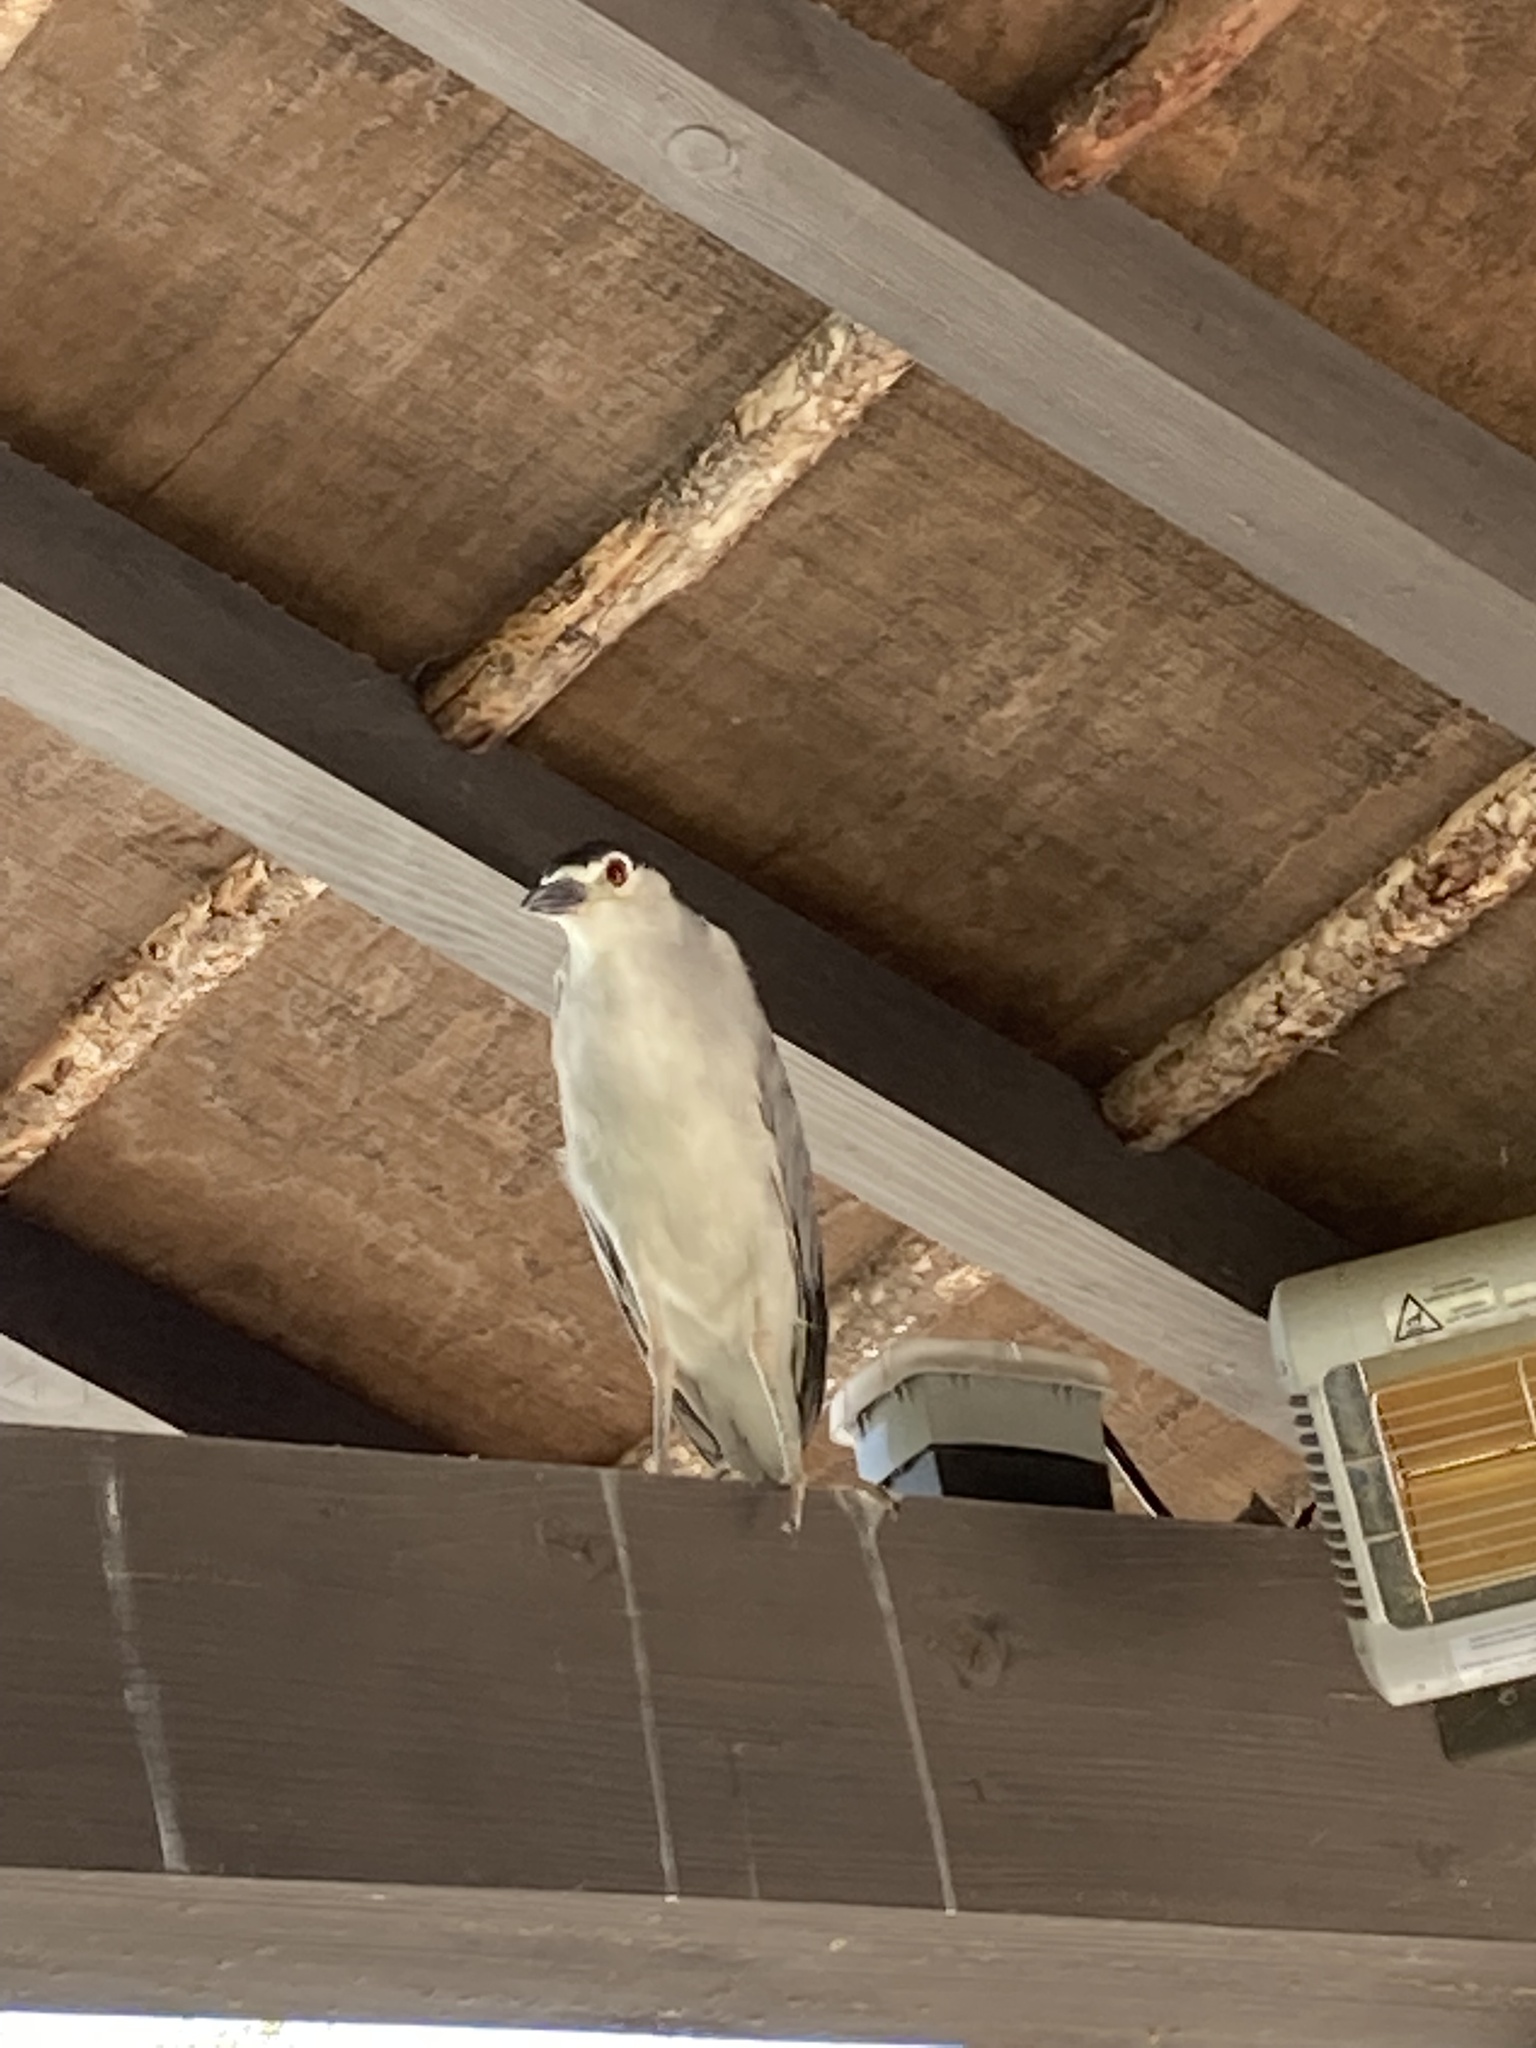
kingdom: Animalia
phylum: Chordata
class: Aves
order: Pelecaniformes
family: Ardeidae
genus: Nycticorax
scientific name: Nycticorax nycticorax
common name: Black-crowned night heron
